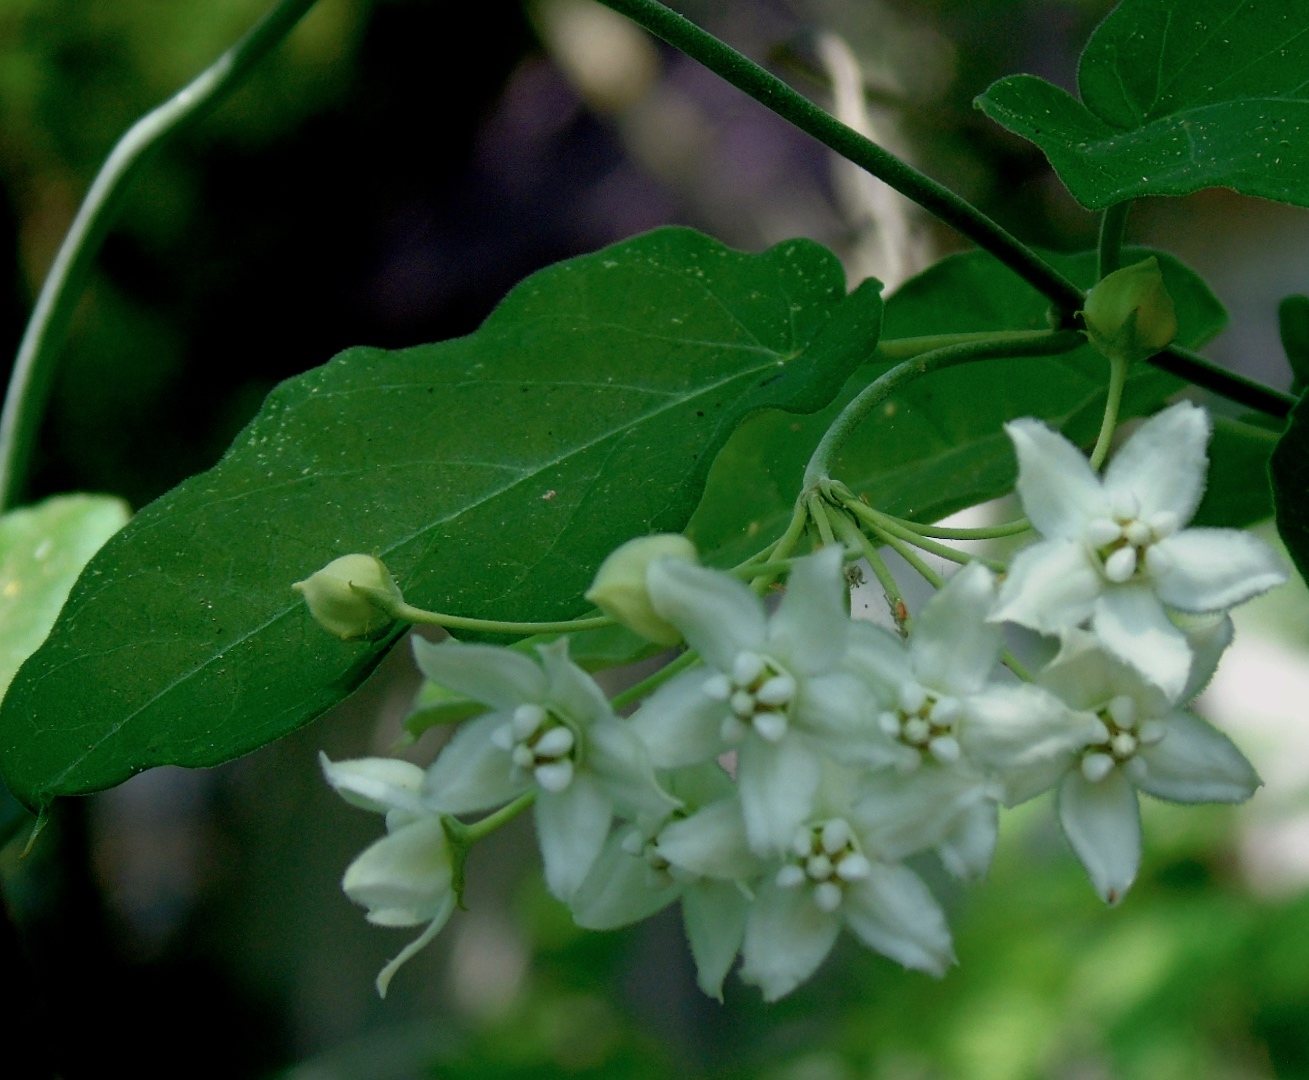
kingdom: Plantae
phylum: Tracheophyta
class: Magnoliopsida
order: Gentianales
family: Apocynaceae
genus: Funastrum
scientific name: Funastrum pannosum
